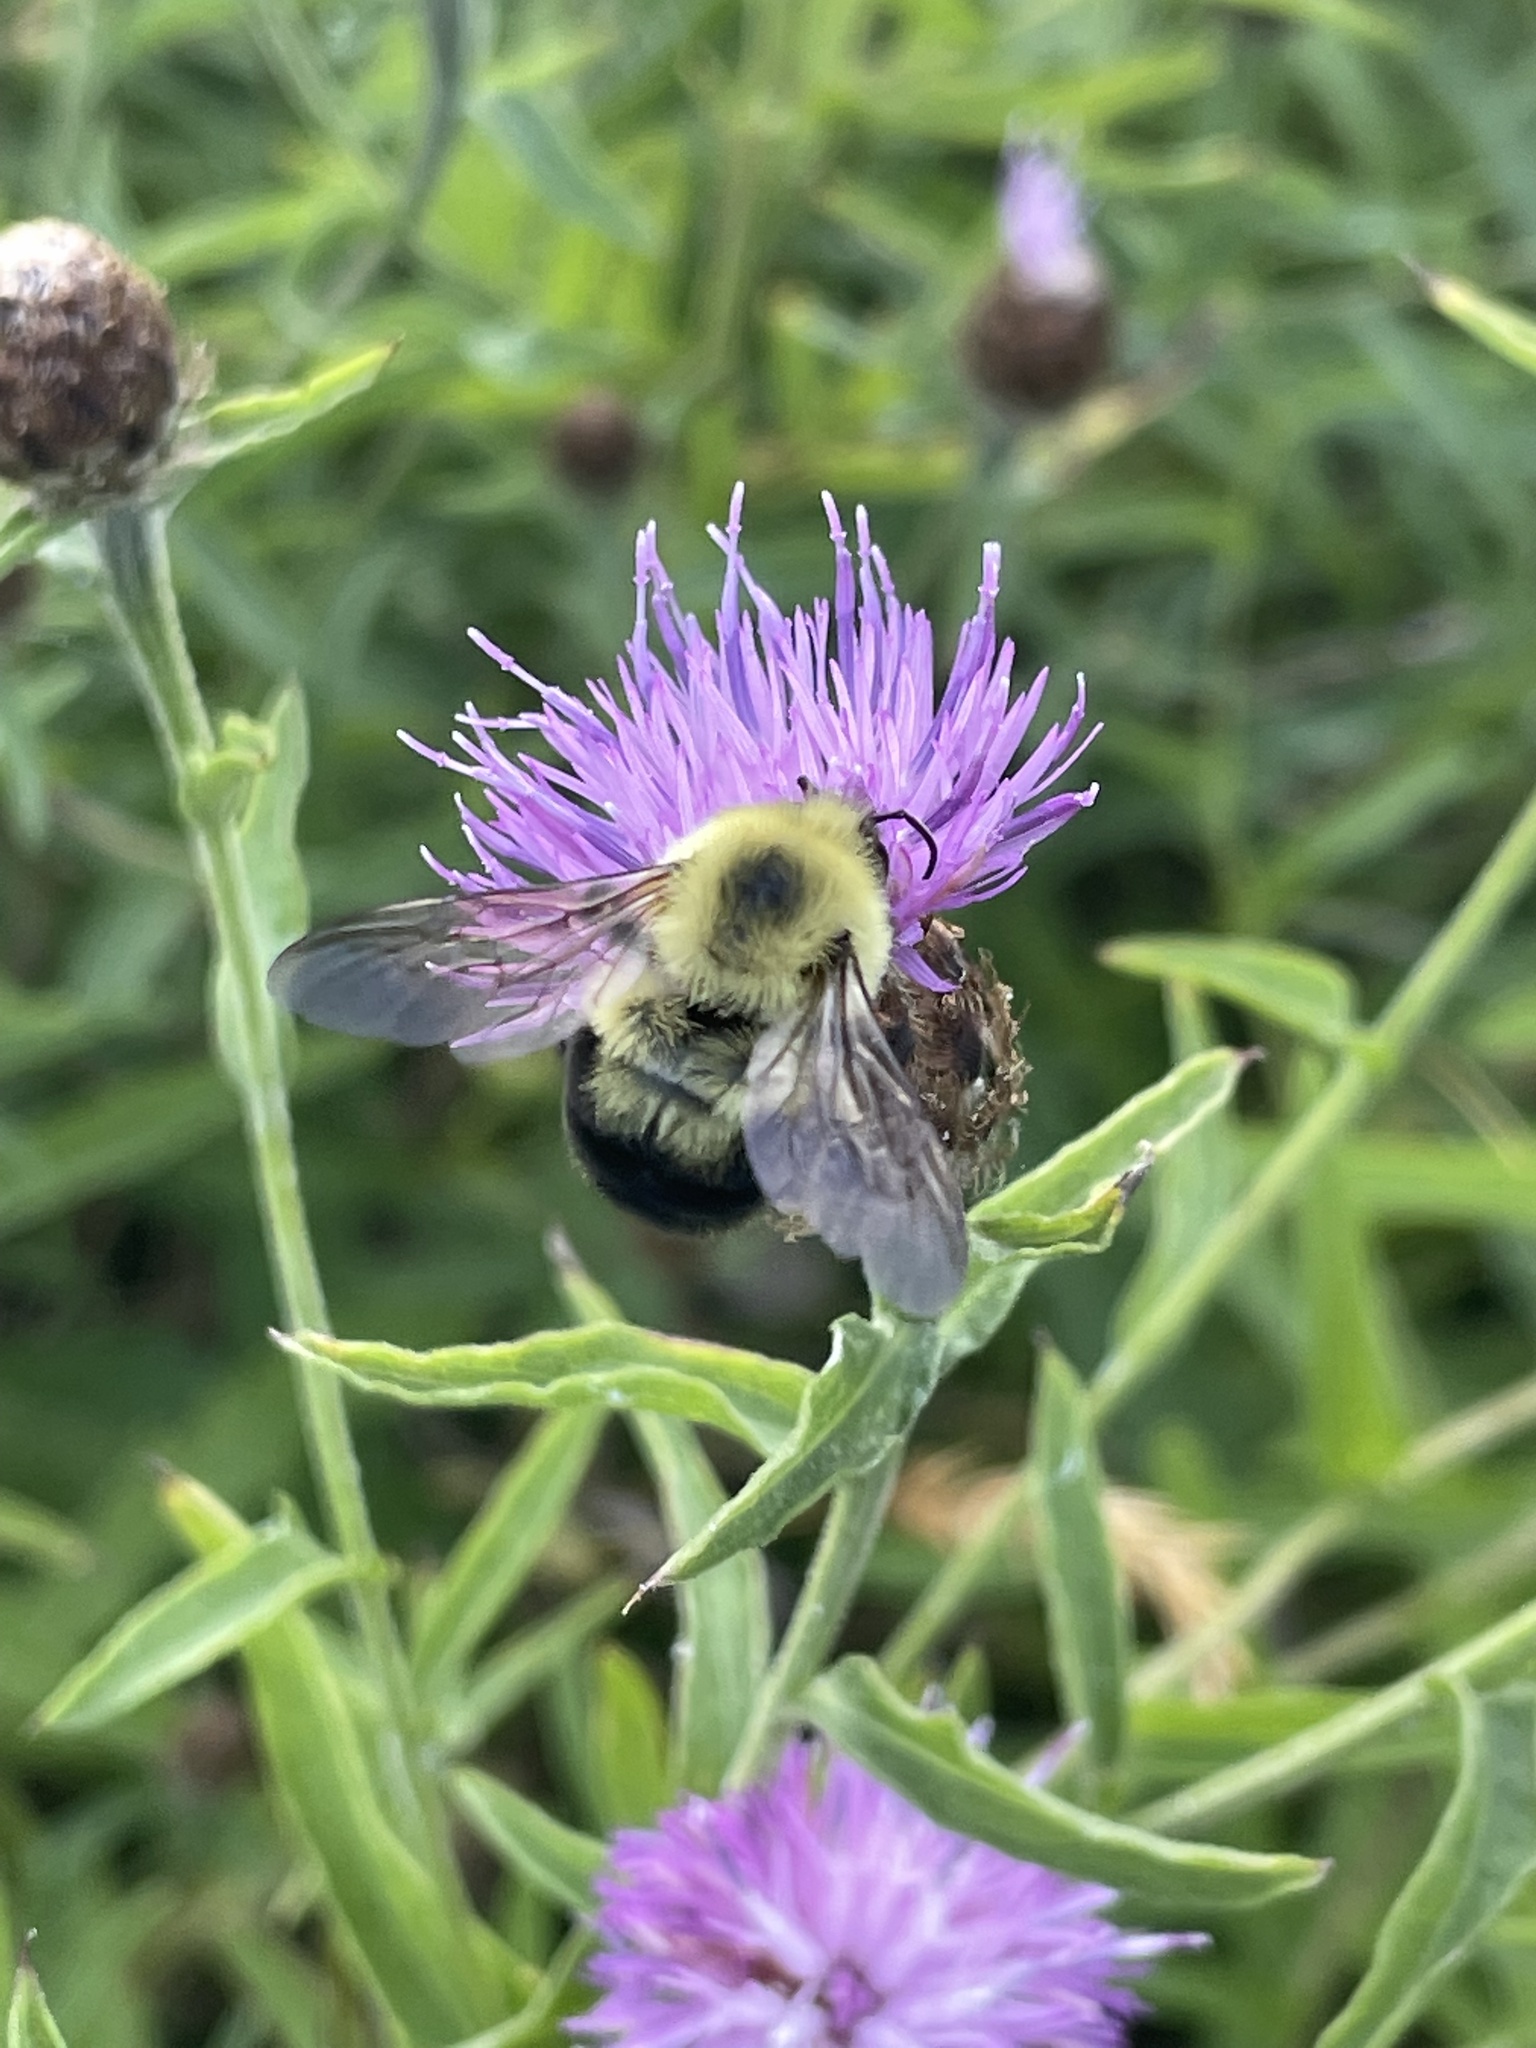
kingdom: Animalia
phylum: Arthropoda
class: Insecta
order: Hymenoptera
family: Apidae
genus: Bombus
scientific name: Bombus bimaculatus
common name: Two-spotted bumble bee
